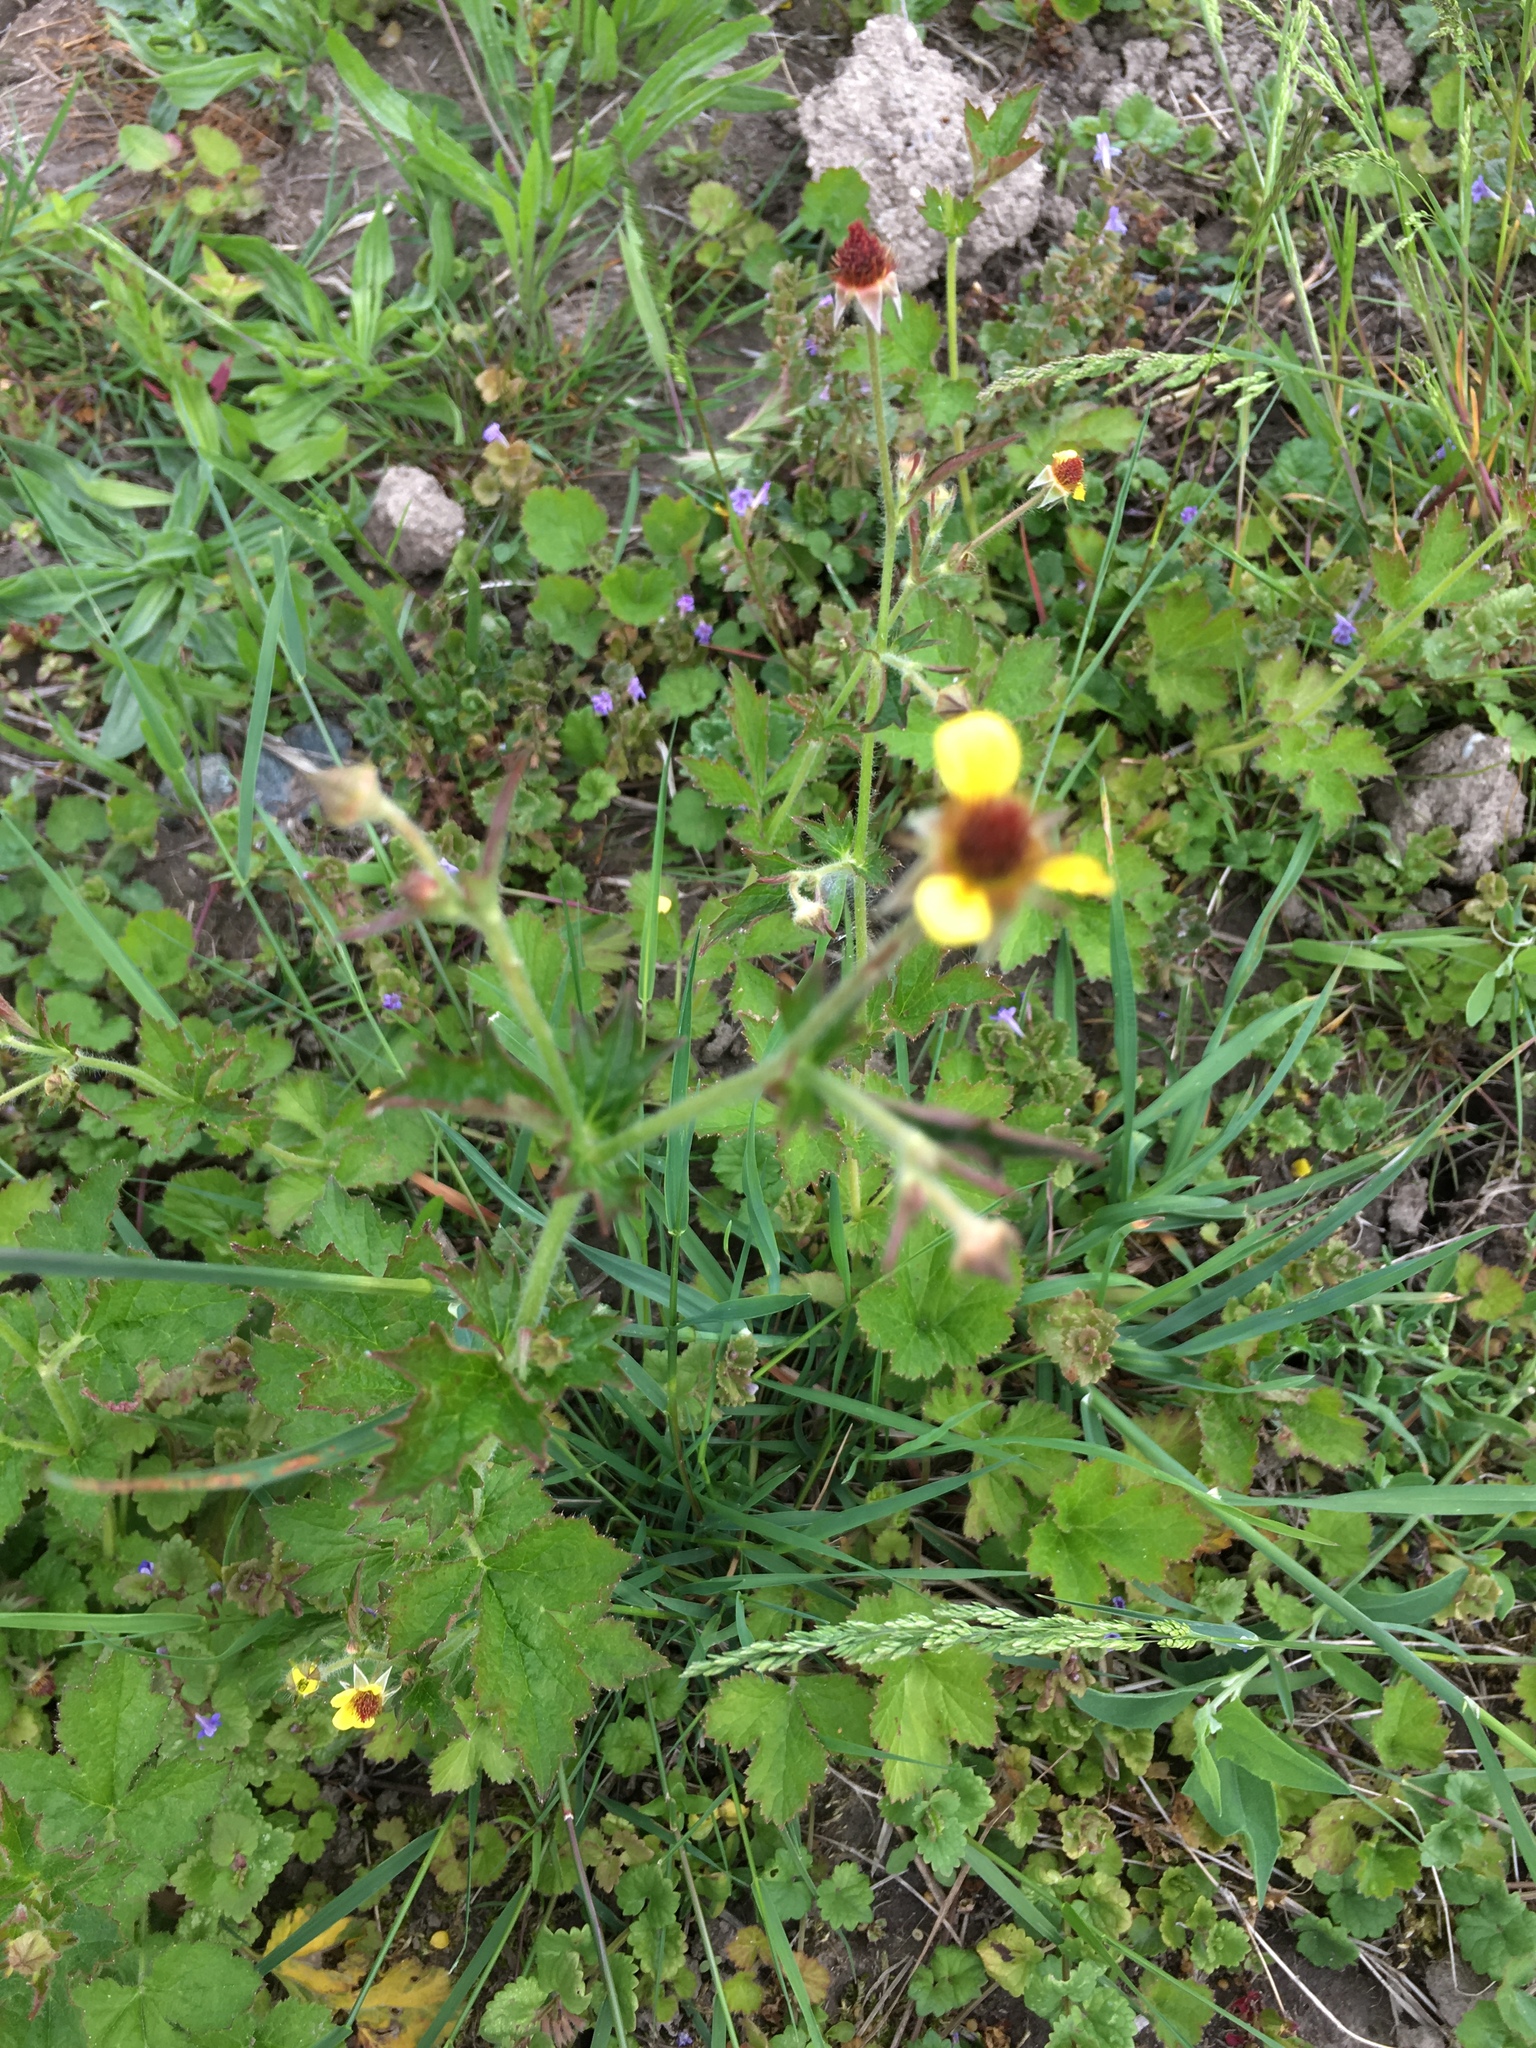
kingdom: Plantae
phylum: Tracheophyta
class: Magnoliopsida
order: Rosales
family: Rosaceae
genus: Geum
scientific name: Geum urbanum
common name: Wood avens
